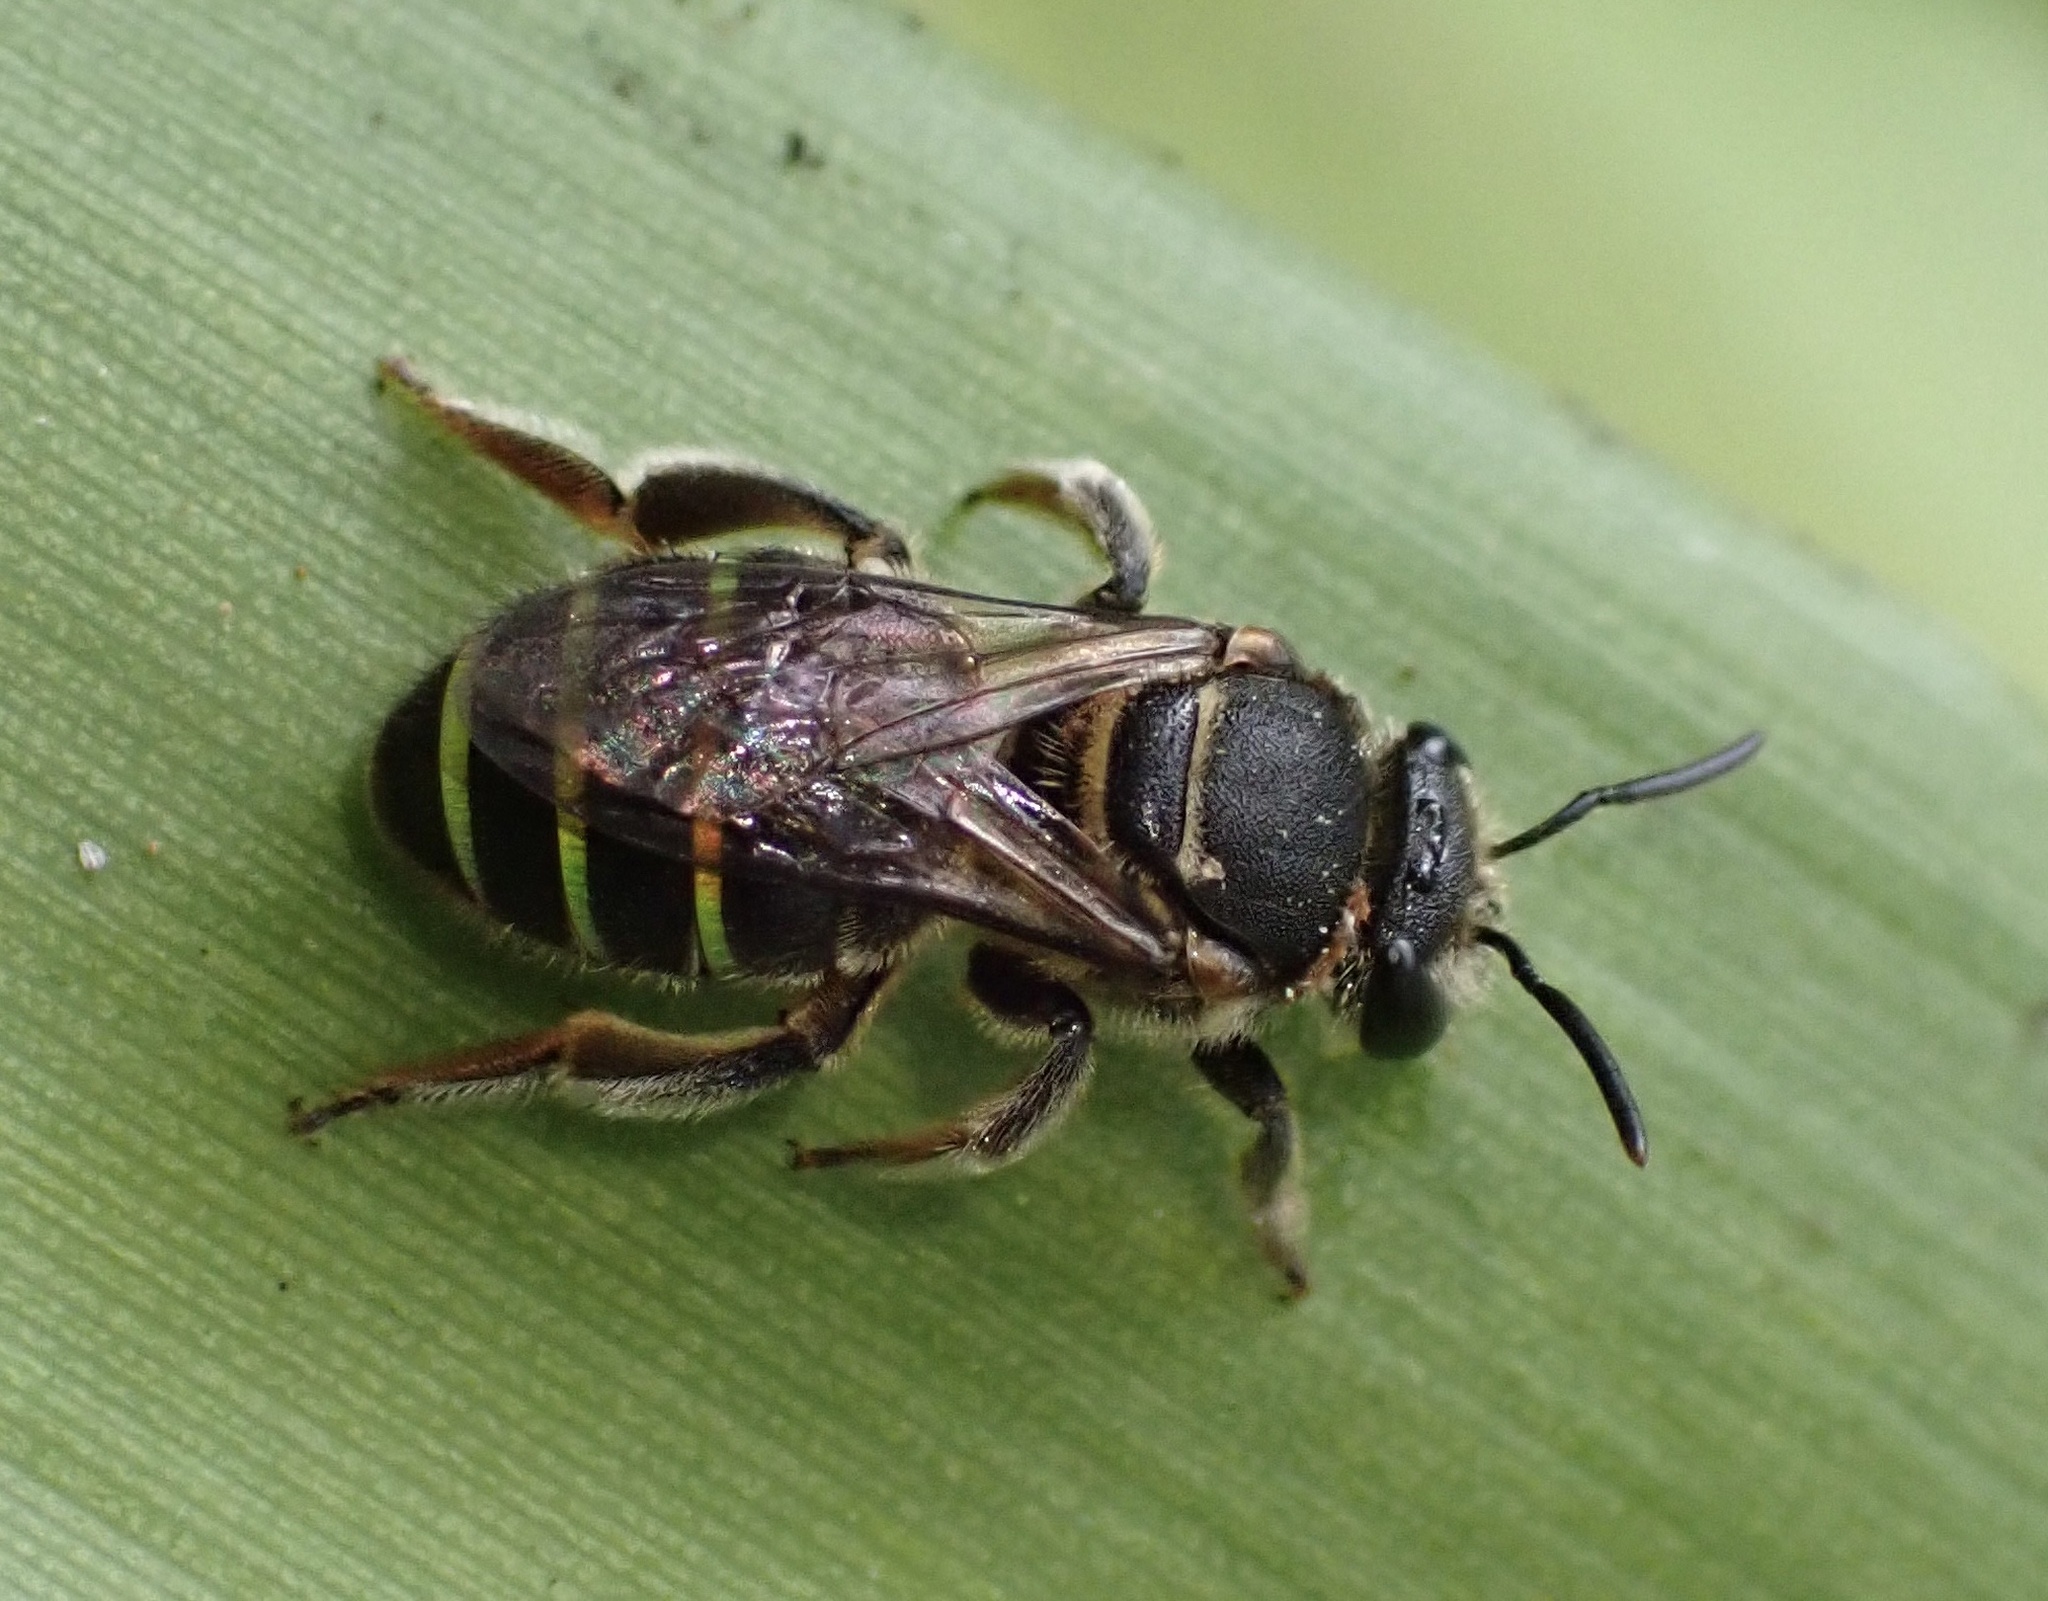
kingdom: Animalia
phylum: Arthropoda
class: Insecta
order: Hymenoptera
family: Halictidae
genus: Nomia
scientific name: Nomia iridescens
